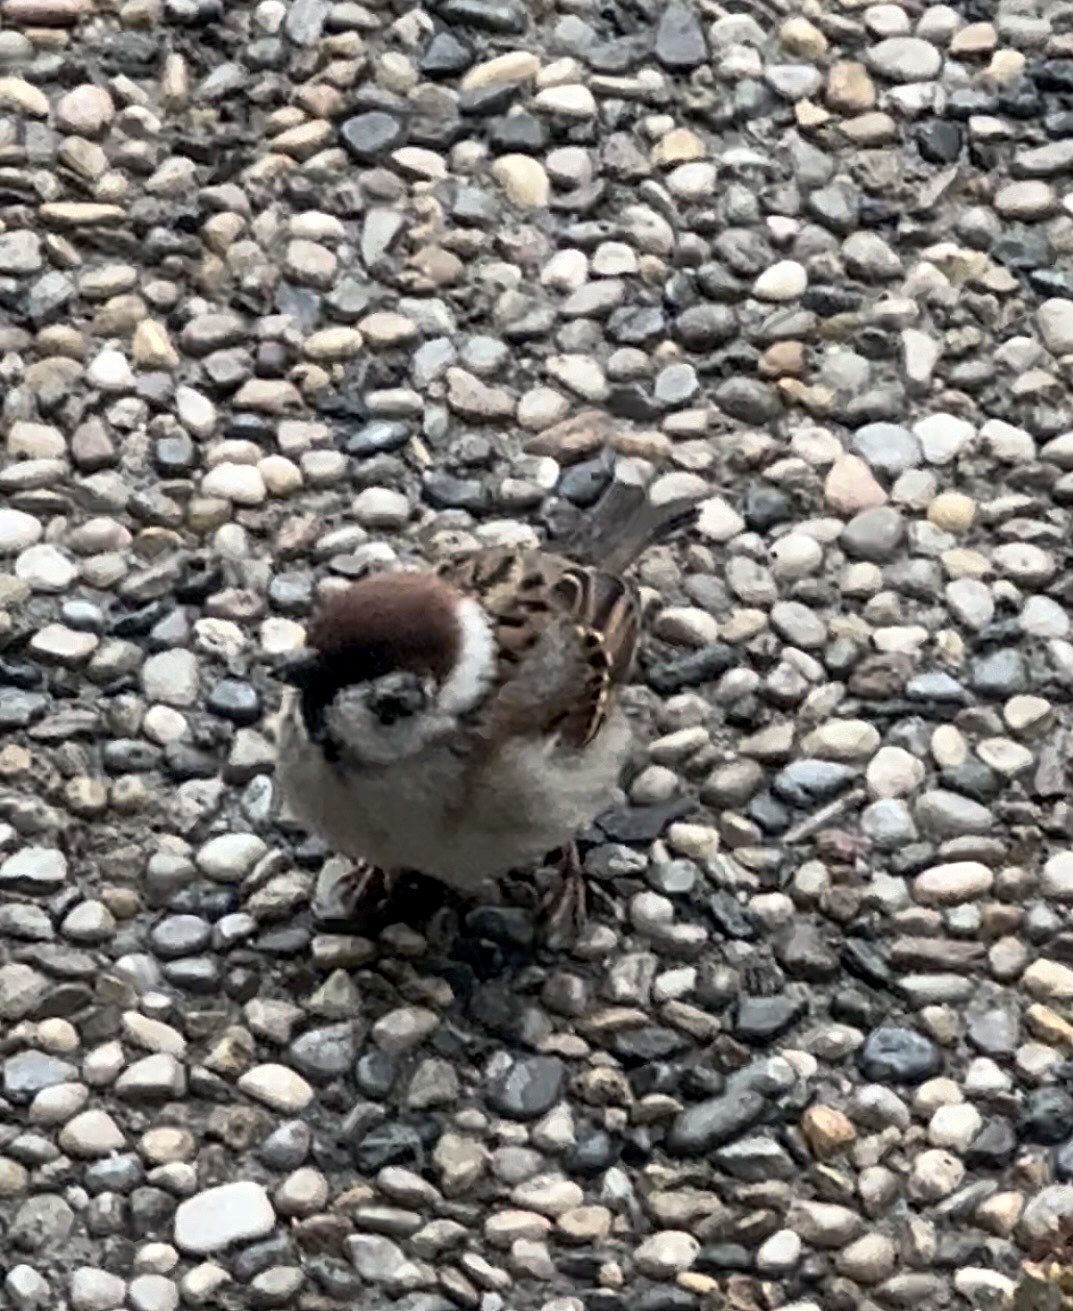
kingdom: Animalia
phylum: Chordata
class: Aves
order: Passeriformes
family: Passeridae
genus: Passer
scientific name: Passer montanus
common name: Eurasian tree sparrow
